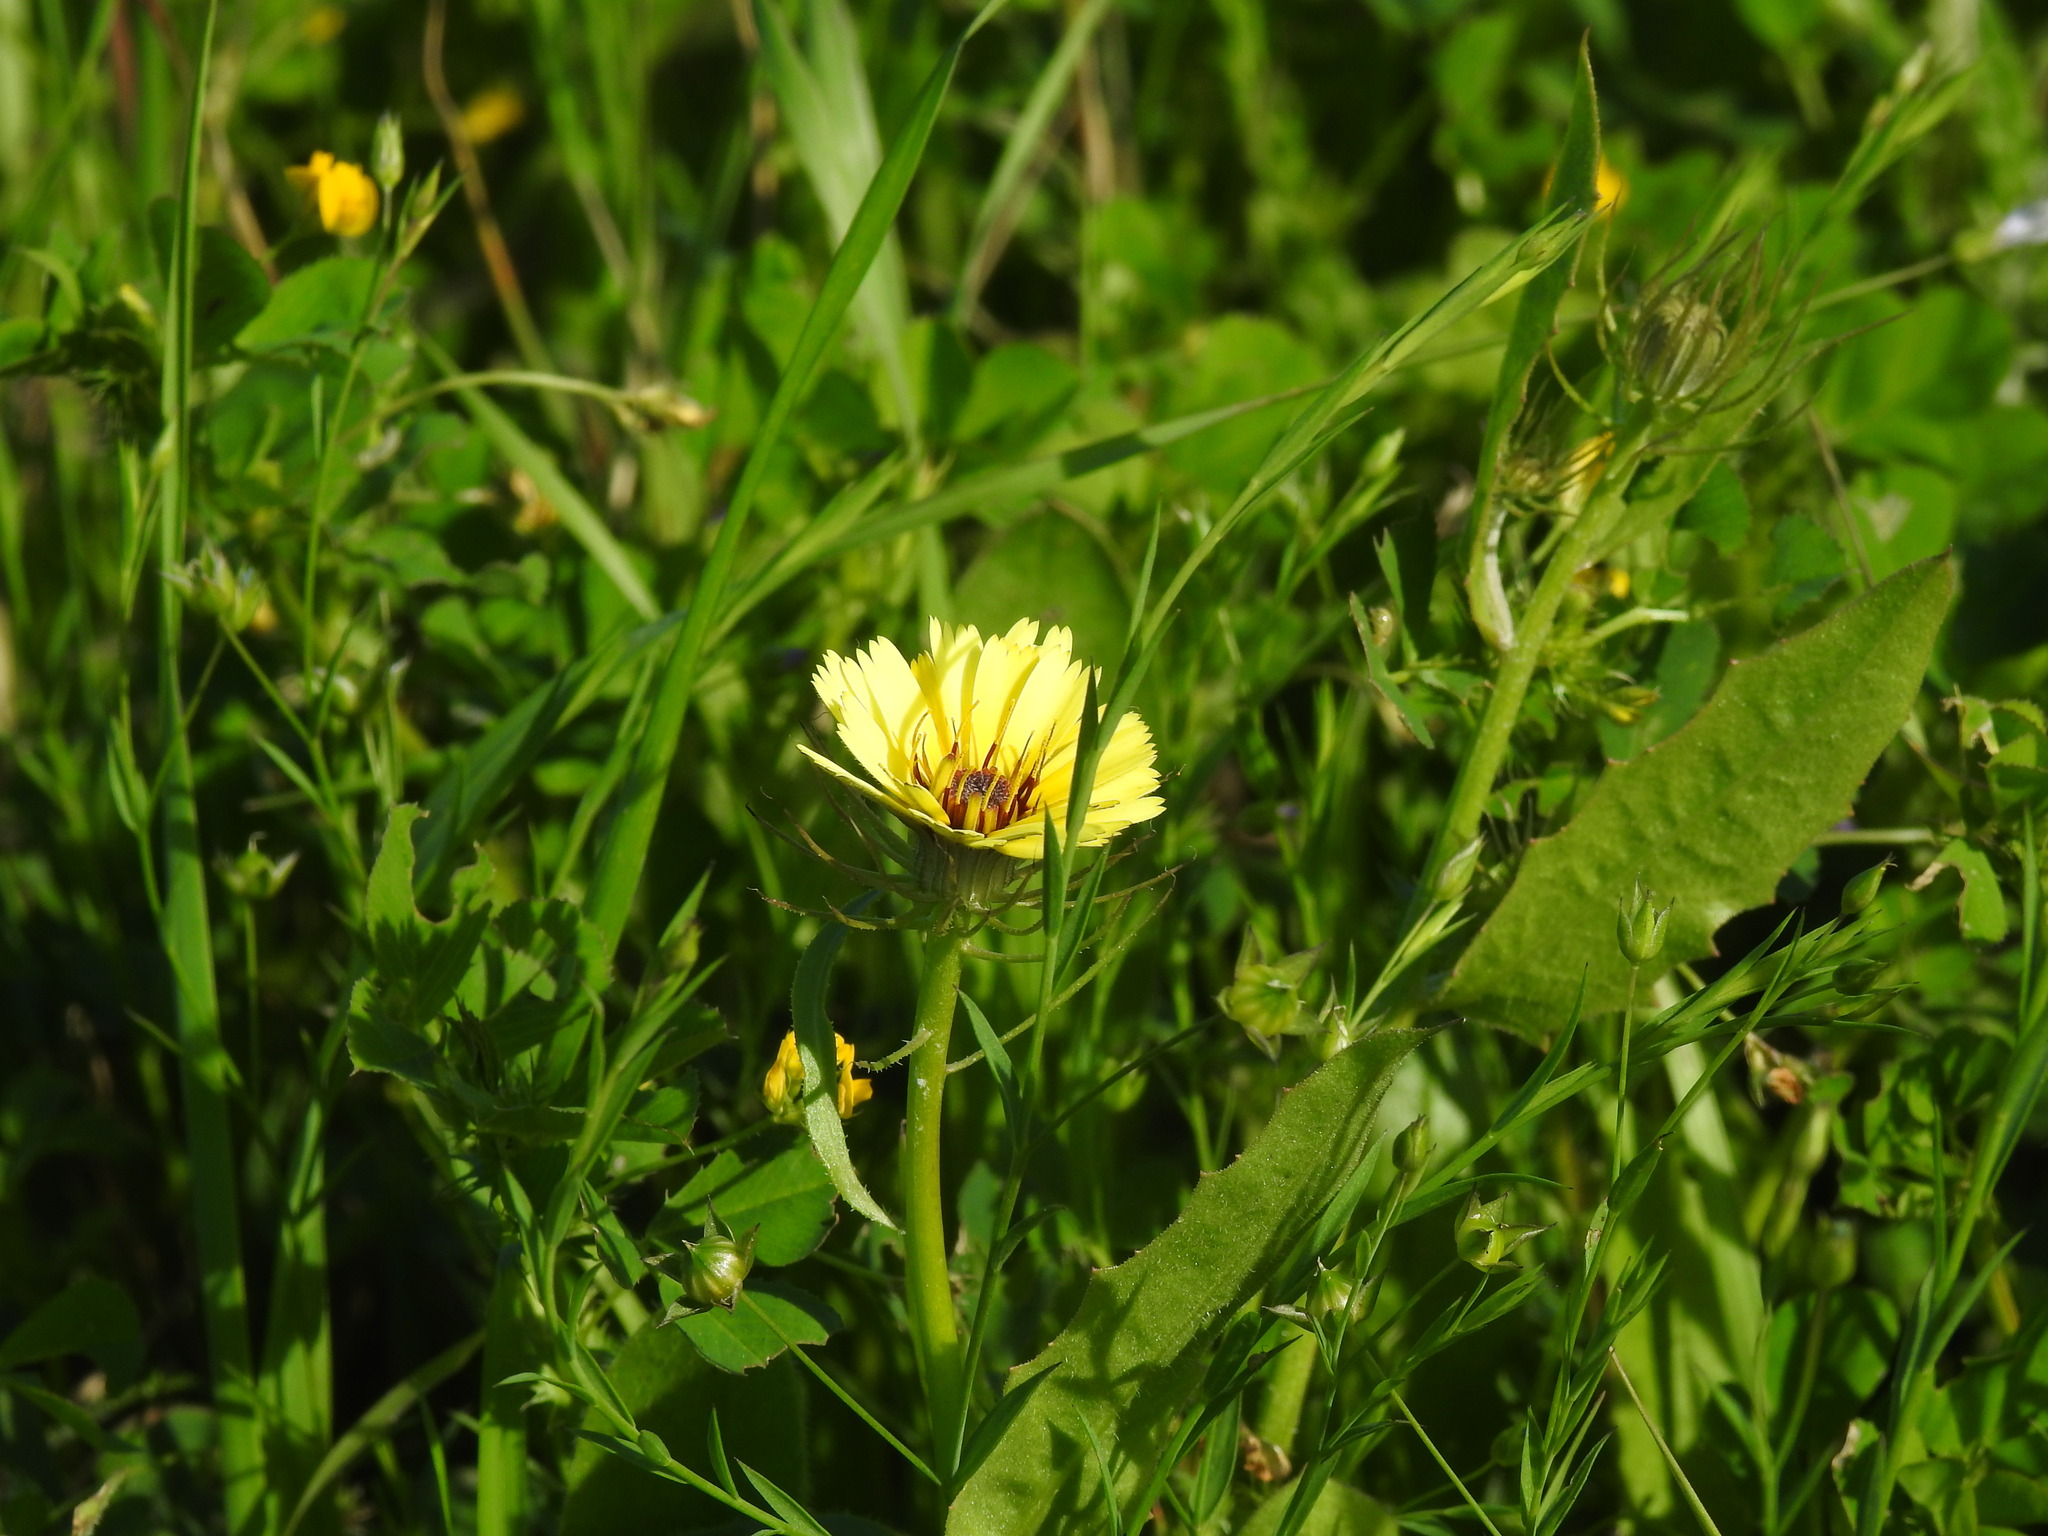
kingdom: Plantae
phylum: Tracheophyta
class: Magnoliopsida
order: Asterales
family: Asteraceae
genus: Tolpis
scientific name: Tolpis barbata
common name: Yellow hawkweed
